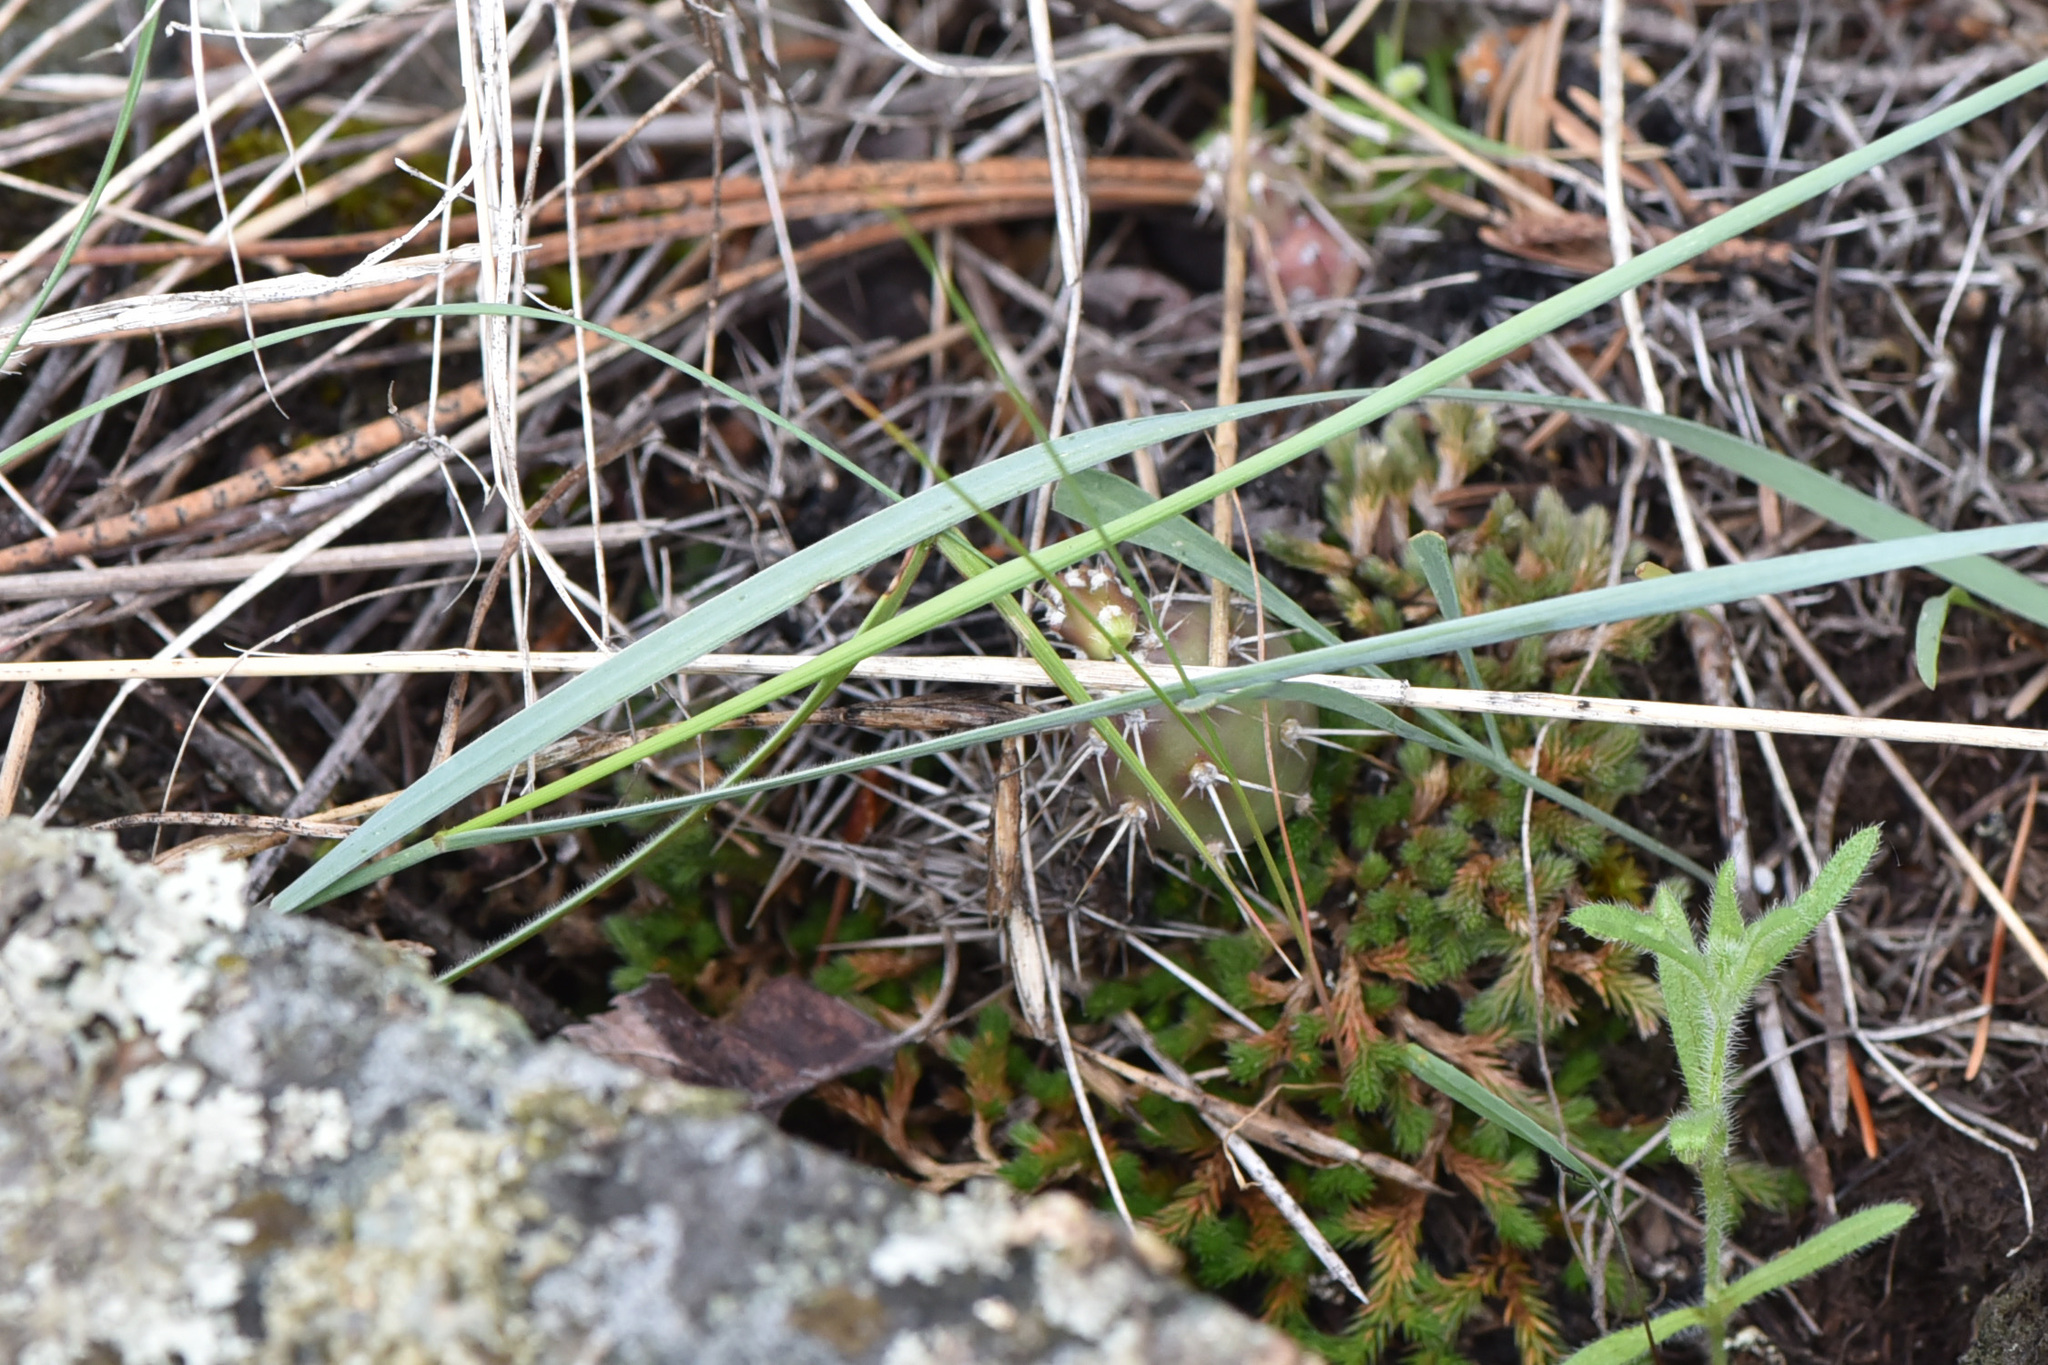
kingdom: Plantae
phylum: Tracheophyta
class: Lycopodiopsida
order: Selaginellales
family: Selaginellaceae
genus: Selaginella
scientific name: Selaginella wallacei
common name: Wallace's selaginella
